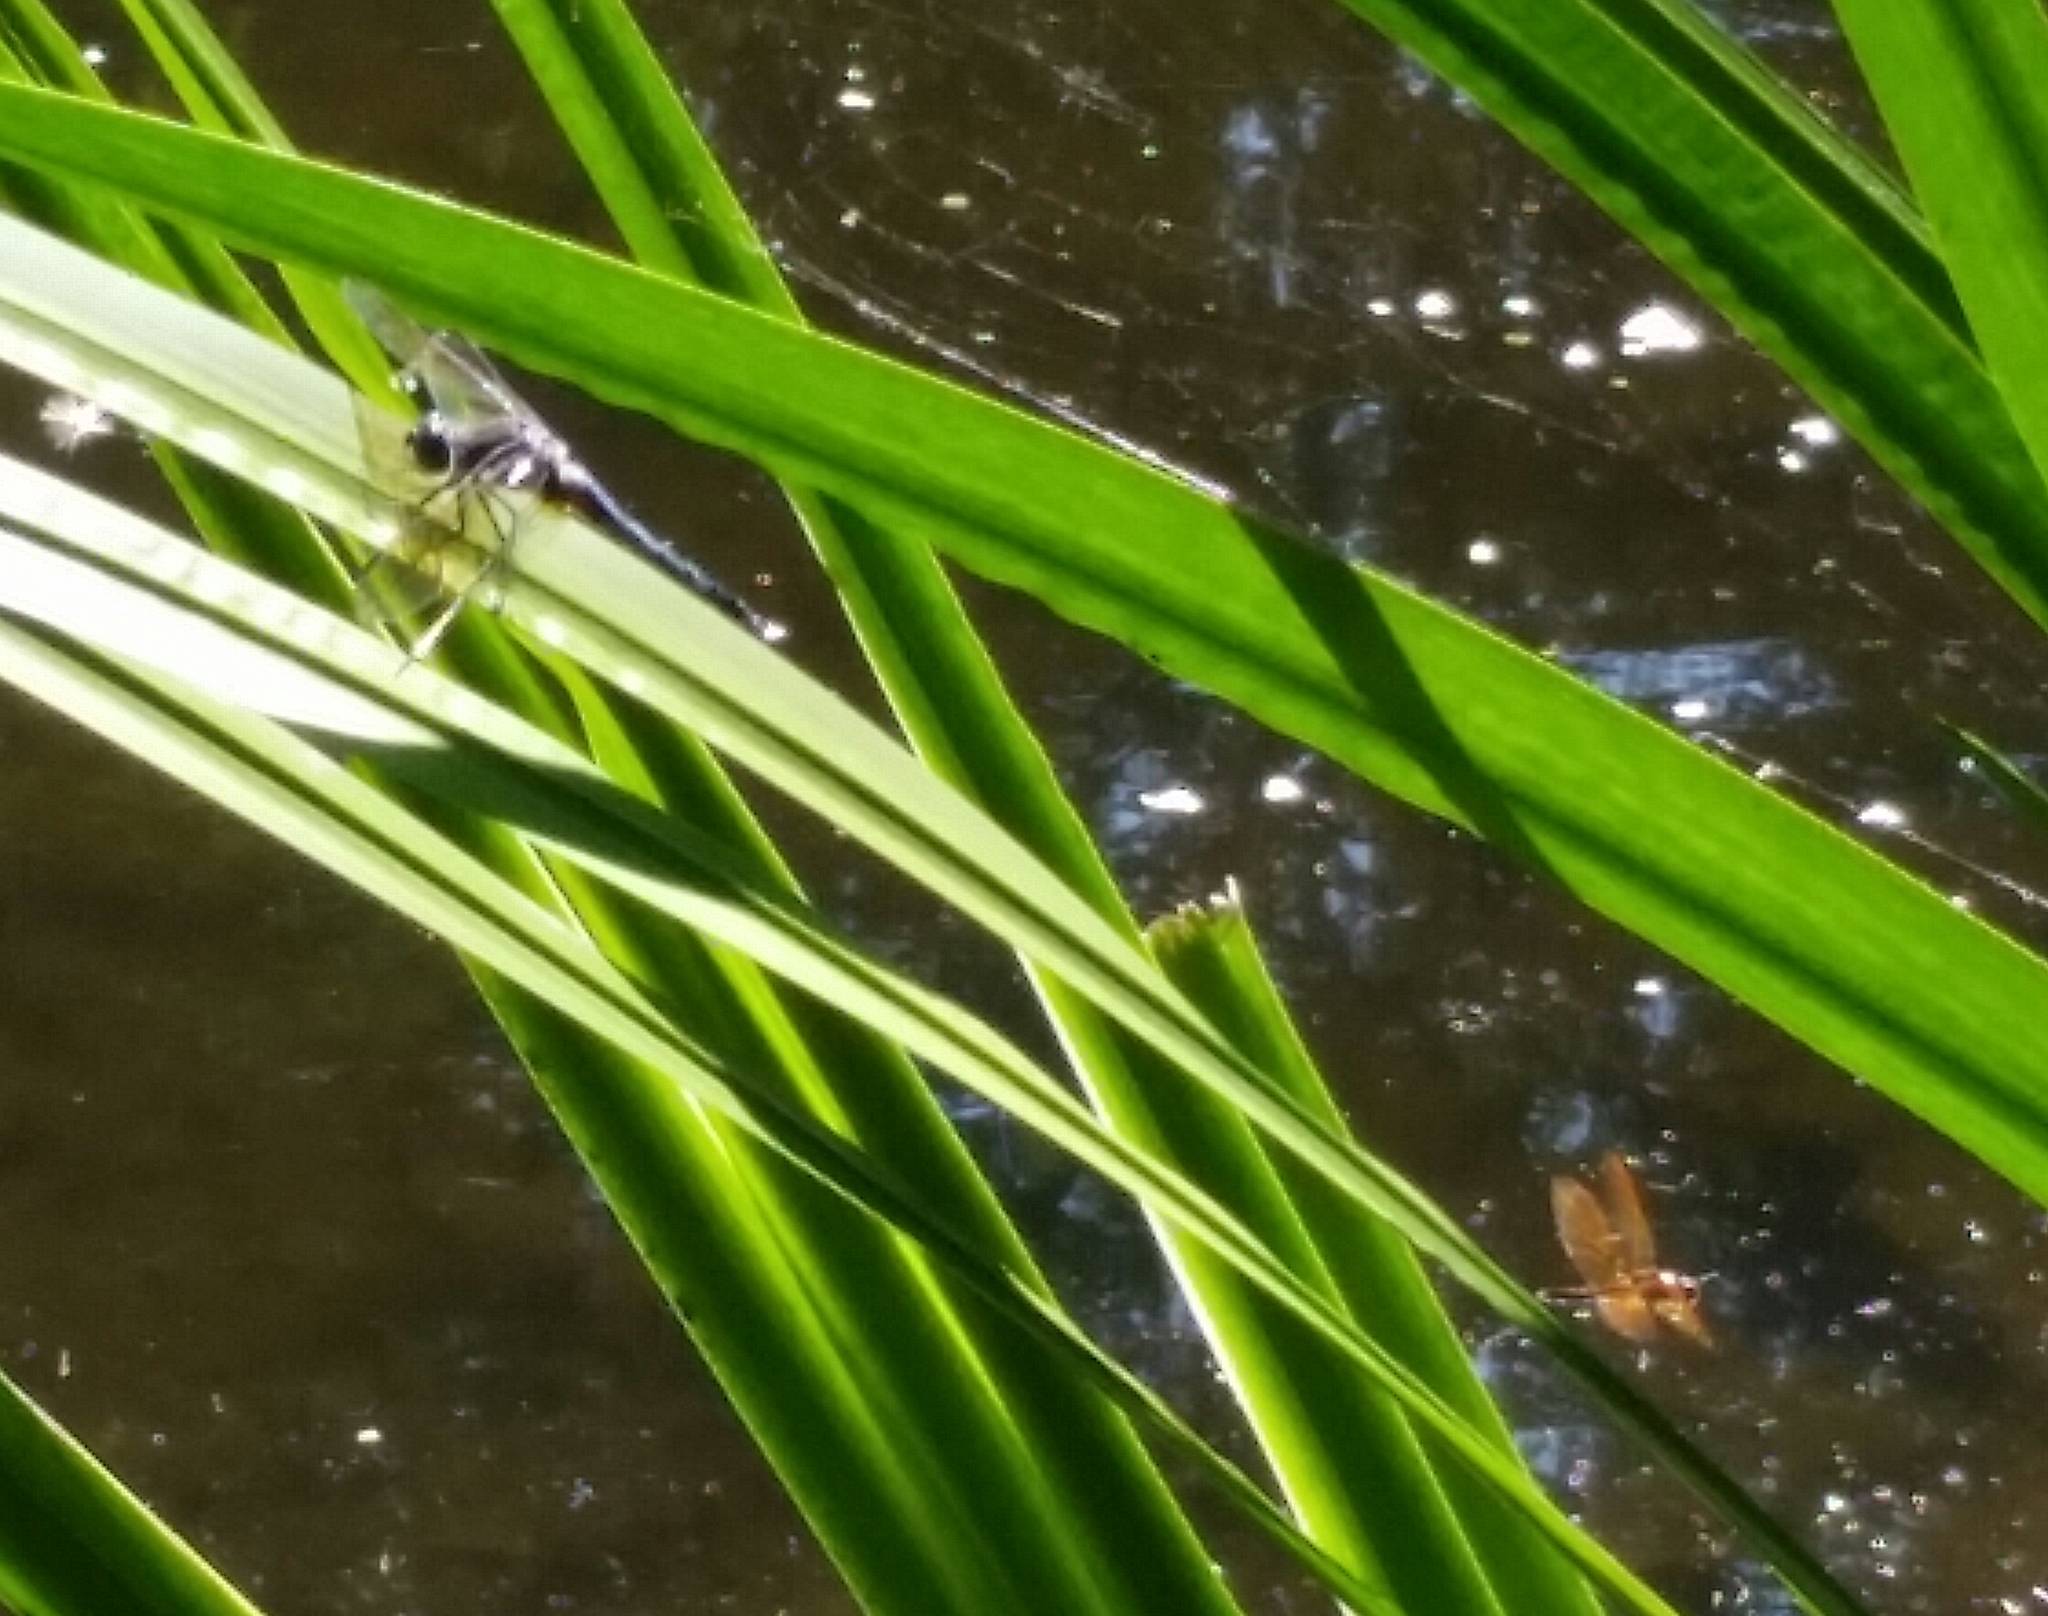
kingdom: Animalia
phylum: Arthropoda
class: Insecta
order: Odonata
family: Libellulidae
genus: Libellula
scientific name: Libellula incesta
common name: Slaty skimmer
